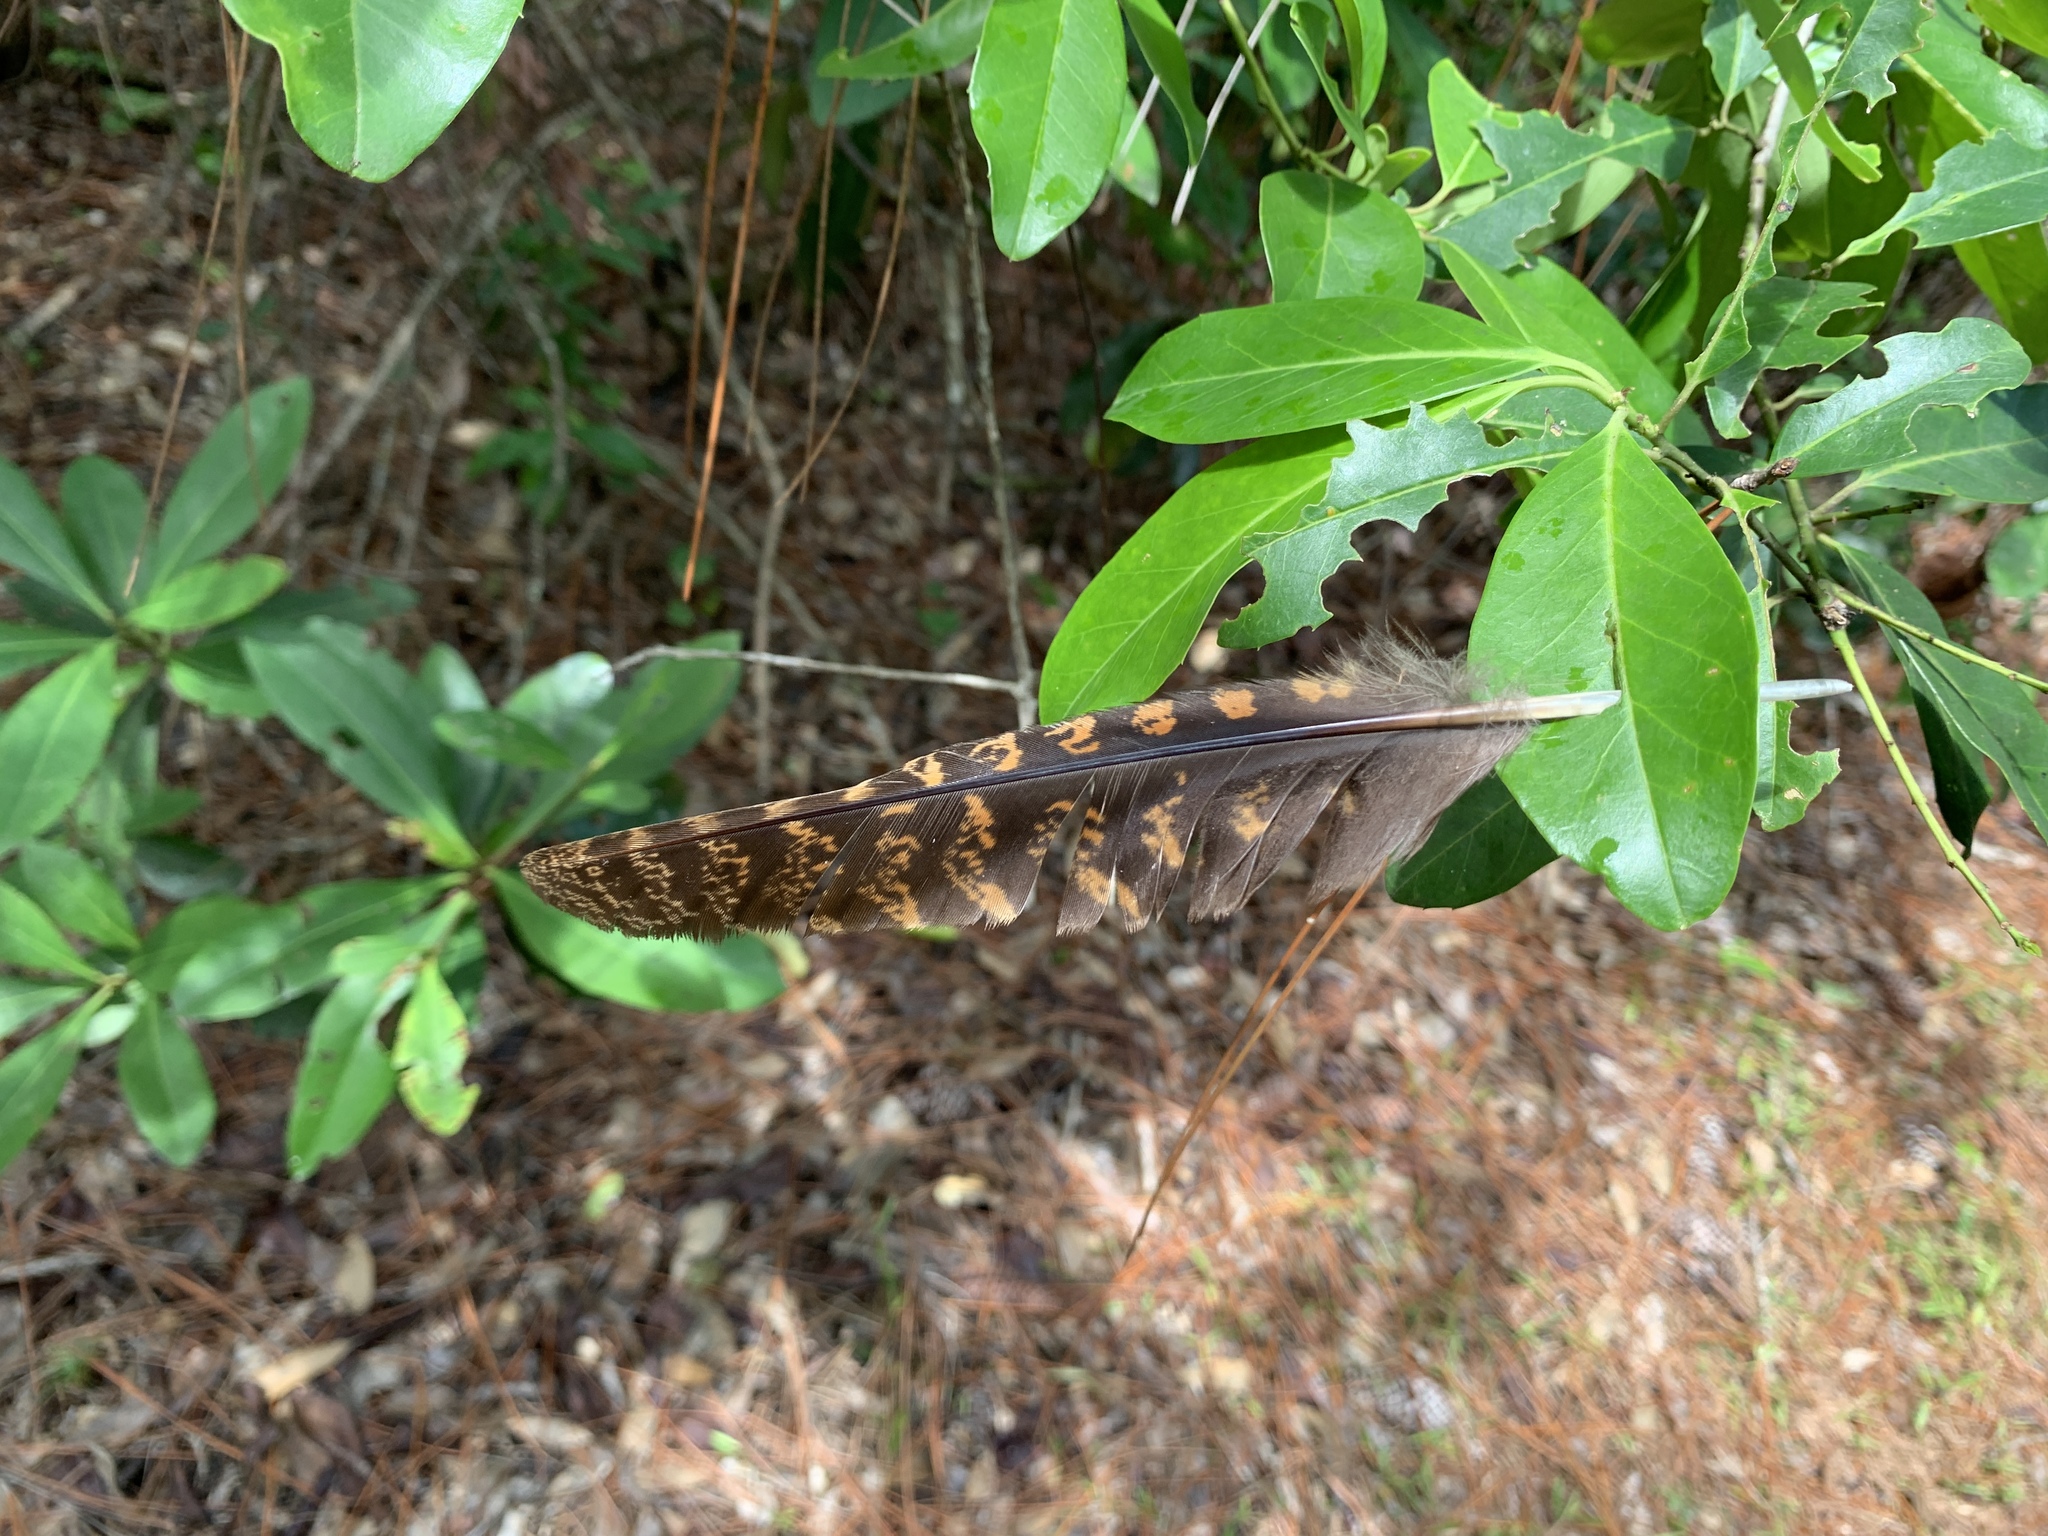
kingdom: Animalia
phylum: Chordata
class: Aves
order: Caprimulgiformes
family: Caprimulgidae
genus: Antrostomus
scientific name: Antrostomus carolinensis
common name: Chuck-will's-widow
